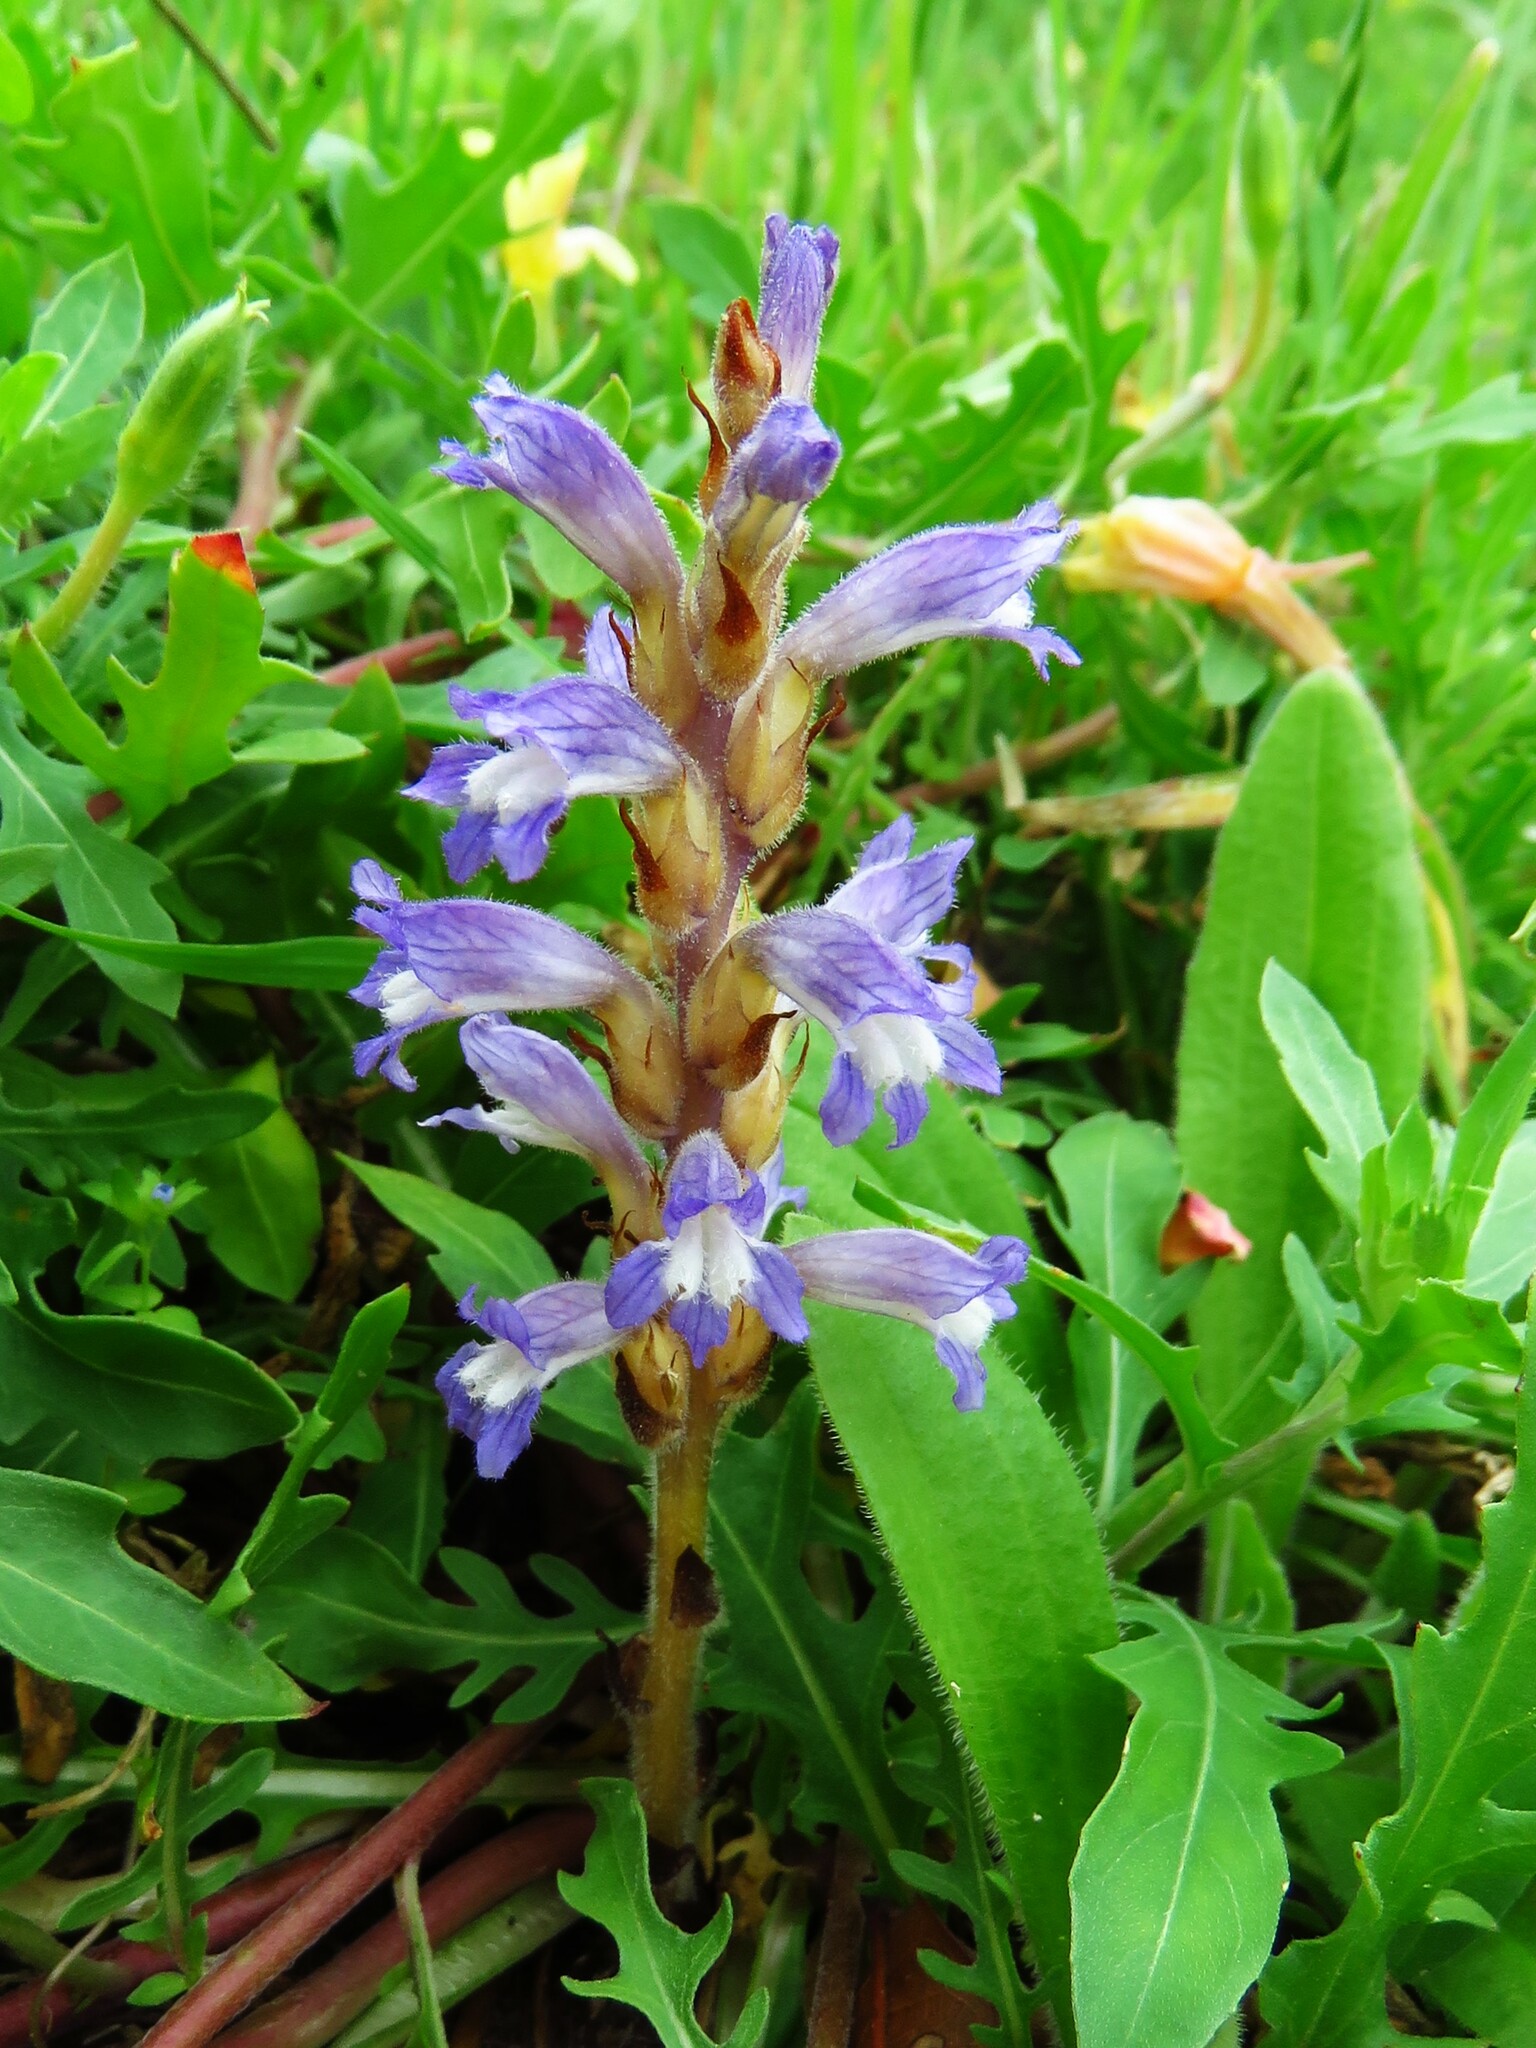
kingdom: Plantae
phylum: Tracheophyta
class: Magnoliopsida
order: Lamiales
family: Orobanchaceae
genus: Phelipanche
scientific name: Phelipanche mutelii
